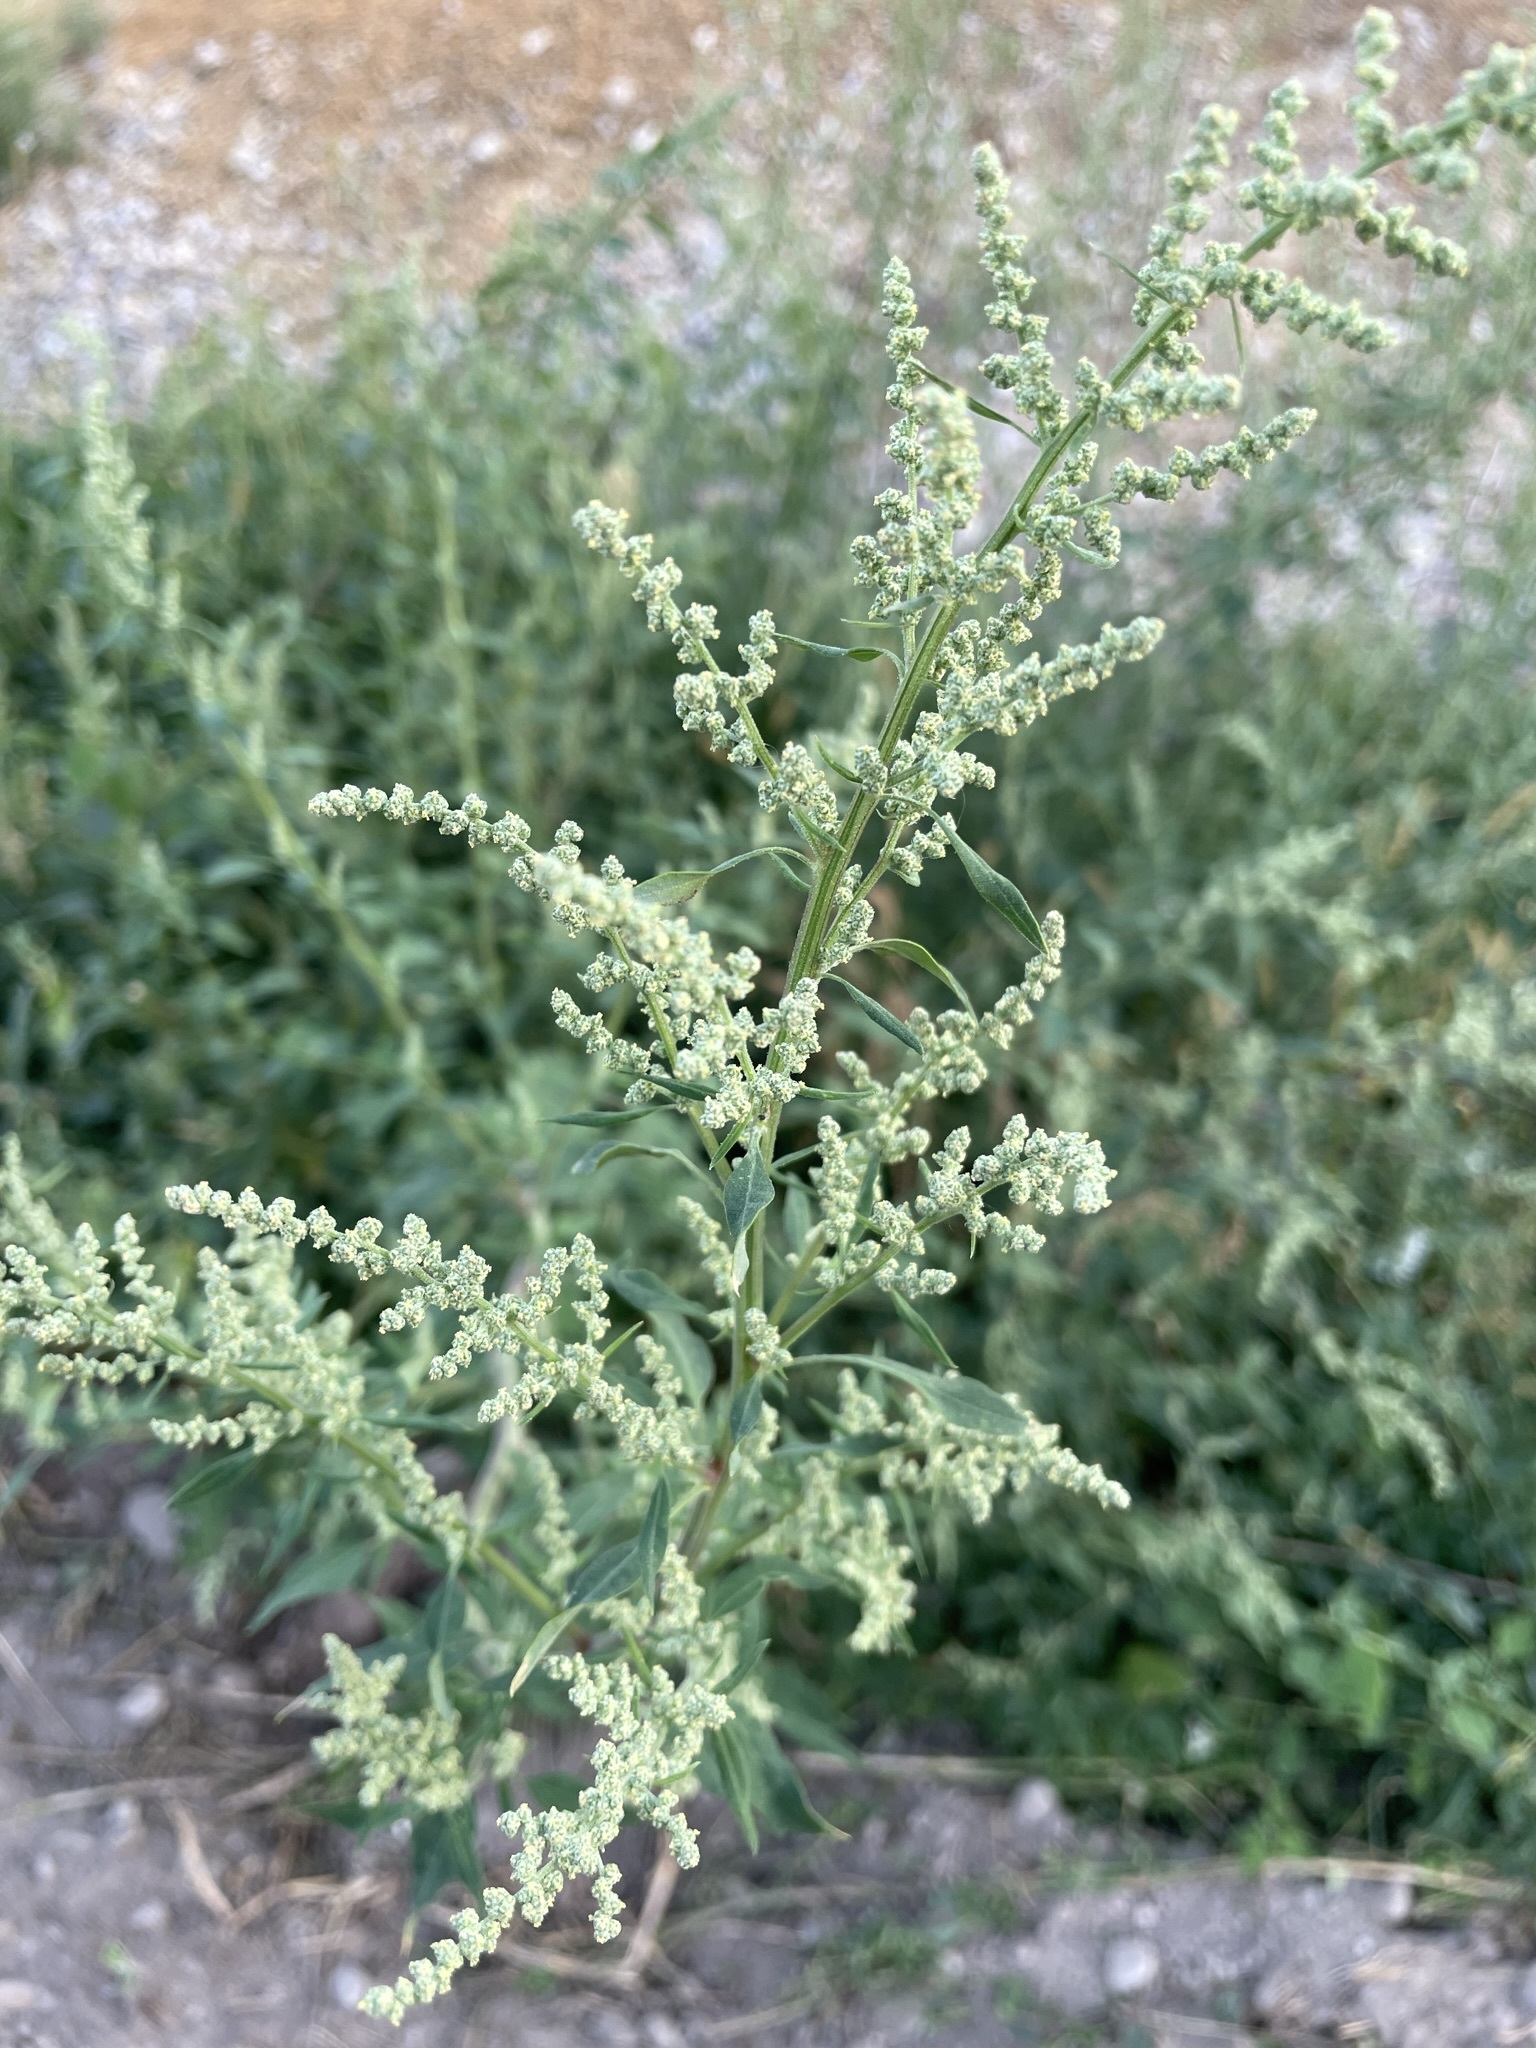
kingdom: Plantae
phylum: Tracheophyta
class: Magnoliopsida
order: Caryophyllales
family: Amaranthaceae
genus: Chenopodium
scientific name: Chenopodium album
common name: Fat-hen
